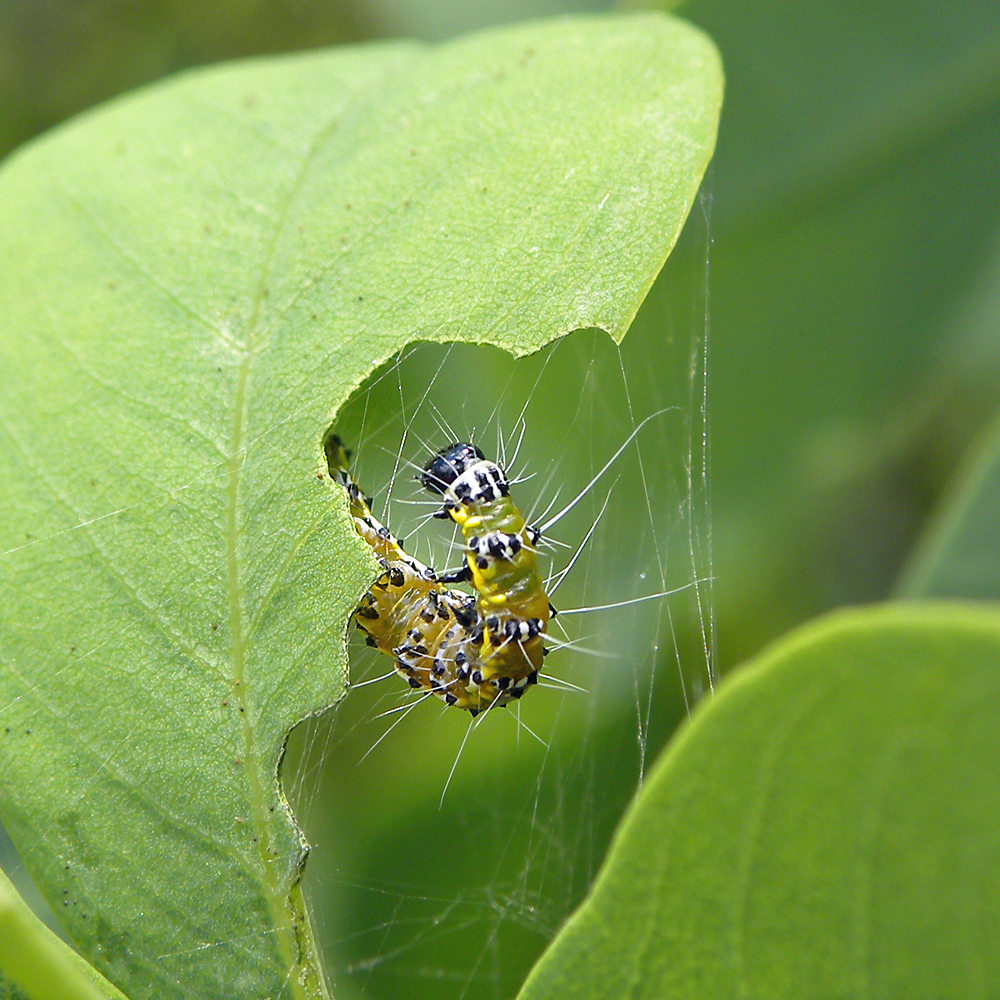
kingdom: Animalia
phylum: Arthropoda
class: Insecta
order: Lepidoptera
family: Crambidae
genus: Uresiphita
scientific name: Uresiphita reversalis
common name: Genista broom moth
